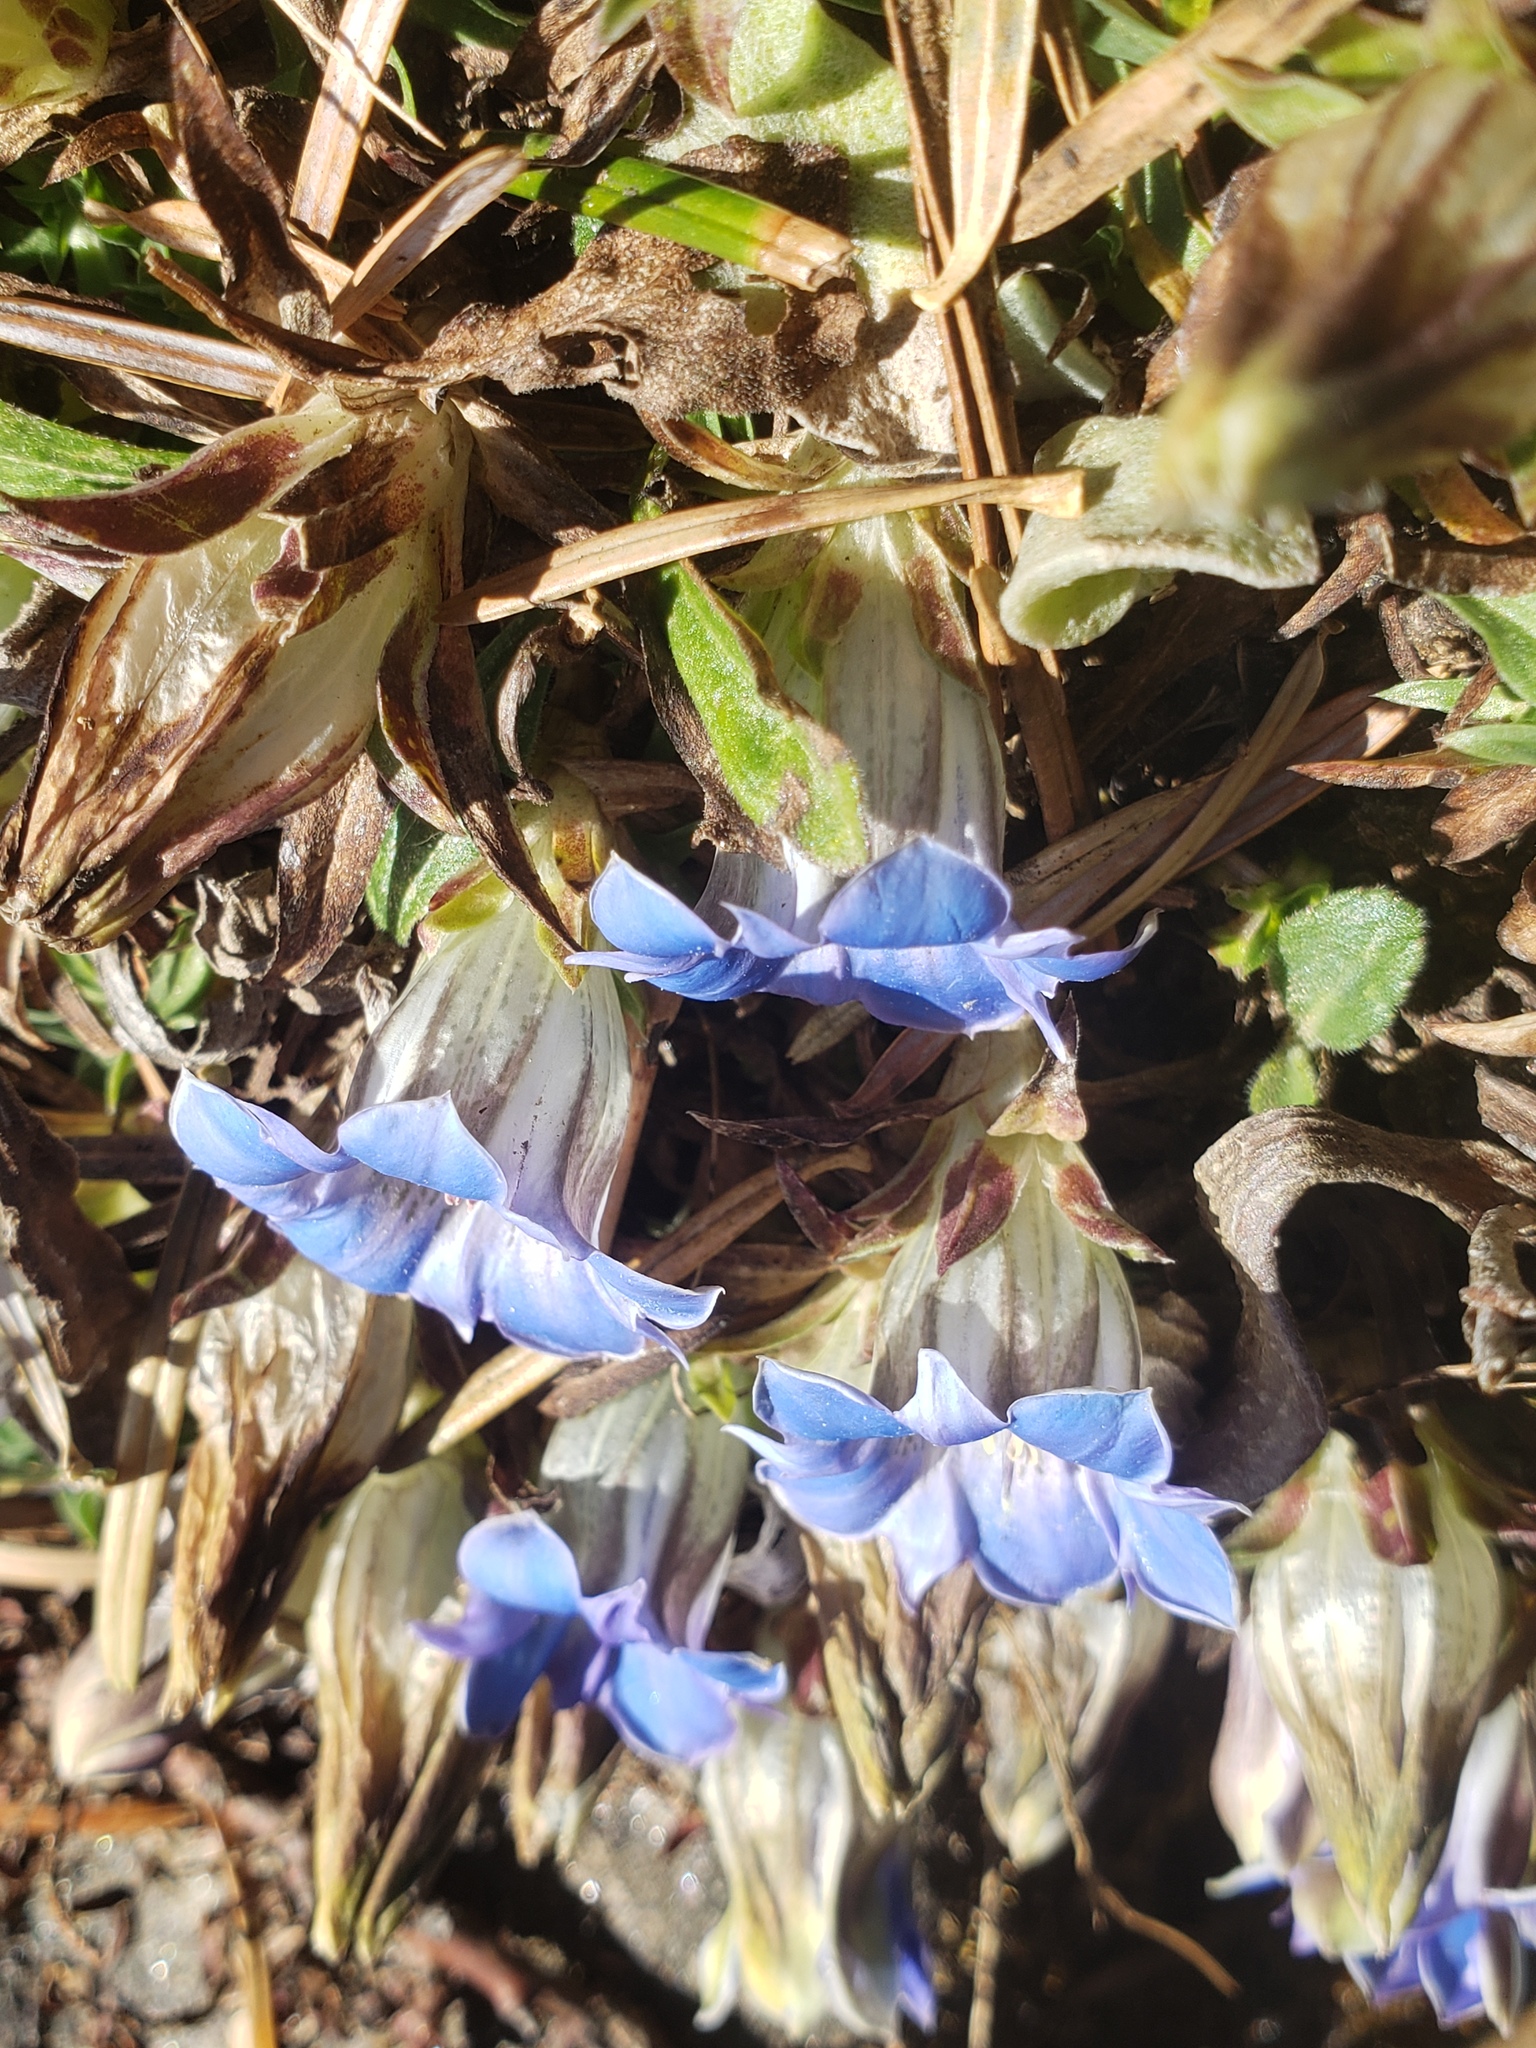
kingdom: Plantae
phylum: Tracheophyta
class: Magnoliopsida
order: Gentianales
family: Gentianaceae
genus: Gentiana
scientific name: Gentiana depressa
